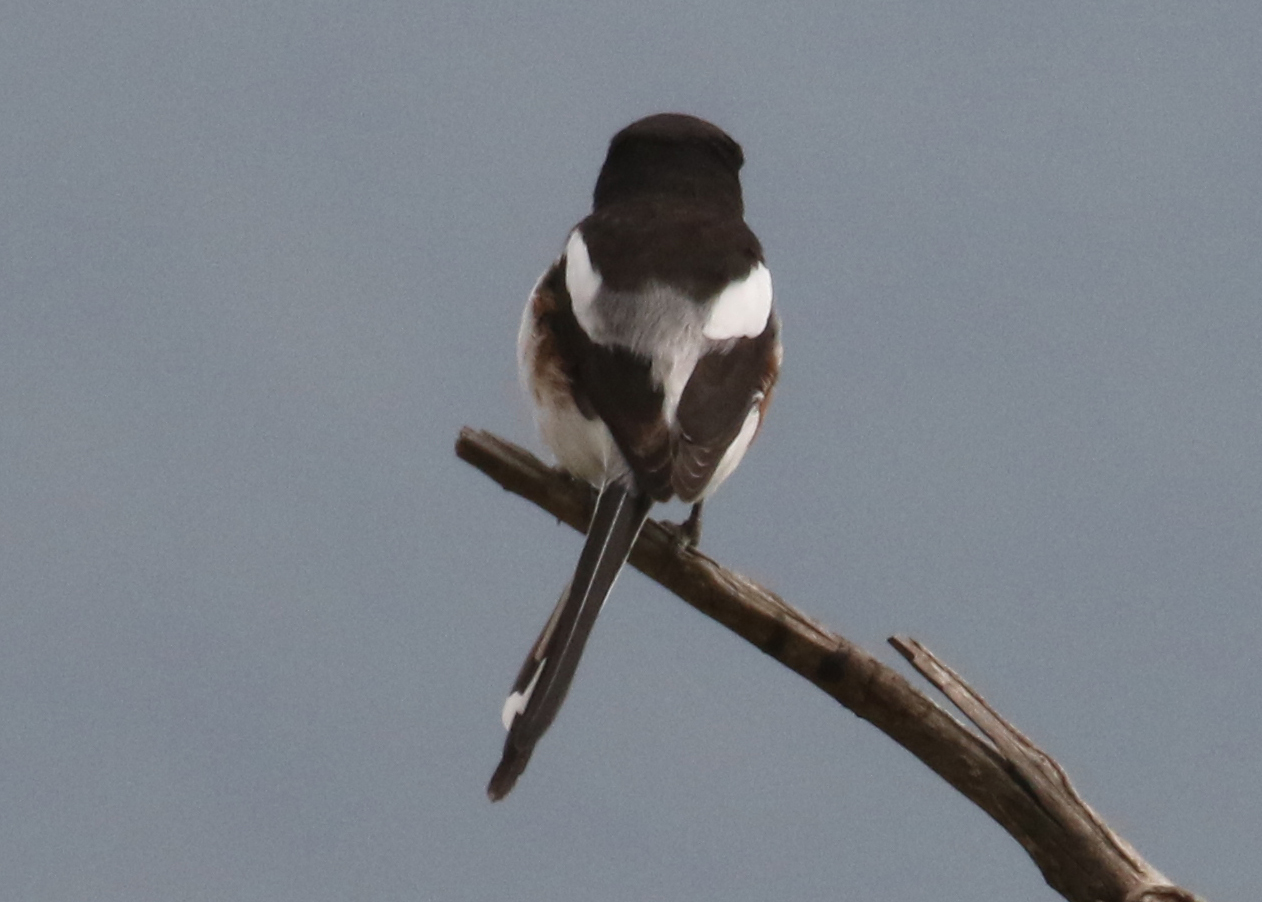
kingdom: Animalia
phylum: Chordata
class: Aves
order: Passeriformes
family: Laniidae
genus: Lanius
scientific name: Lanius humeralis
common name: Northern fiscal
